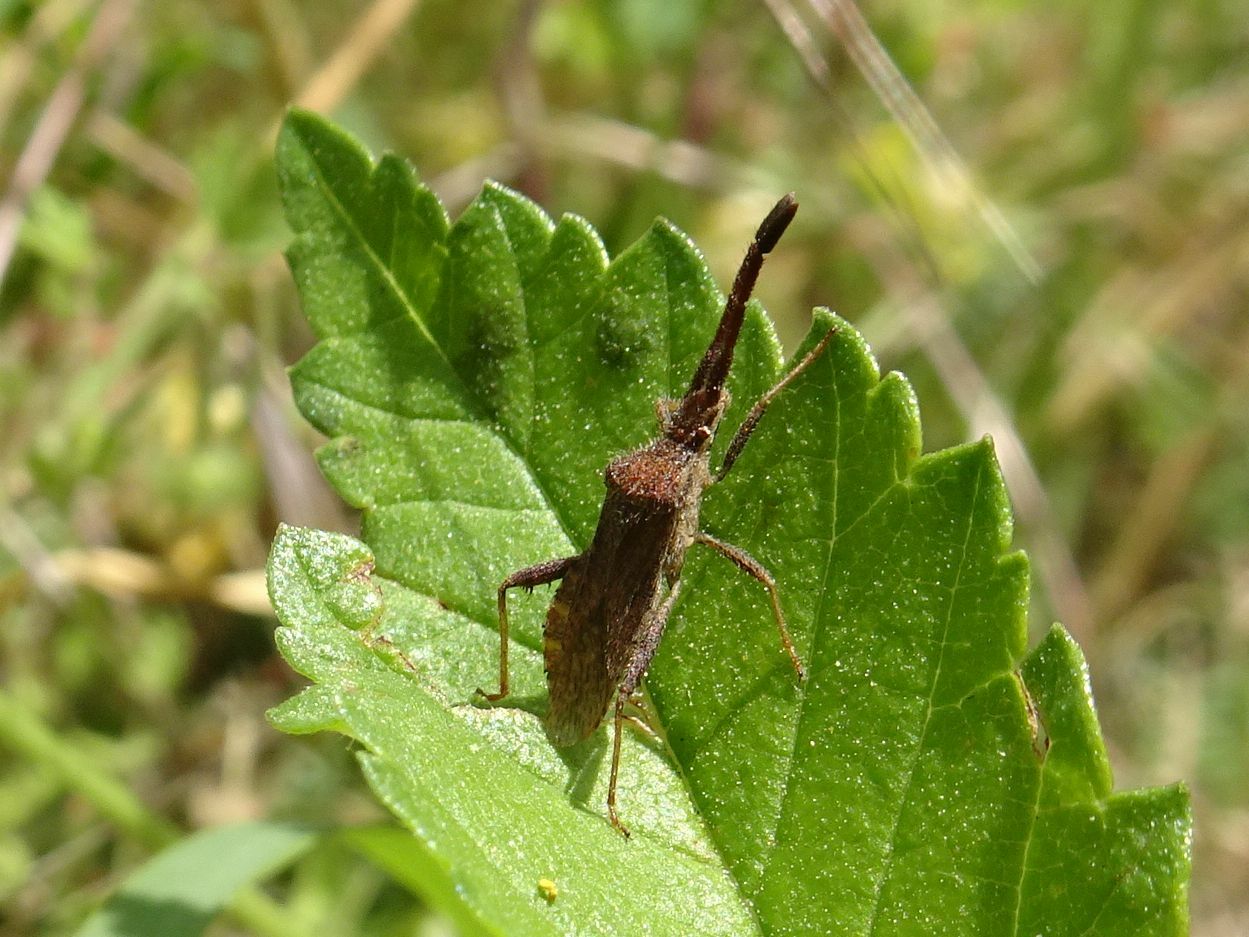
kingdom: Animalia
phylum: Arthropoda
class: Insecta
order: Hemiptera
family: Coreidae
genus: Coriomeris
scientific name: Coriomeris denticulatus
